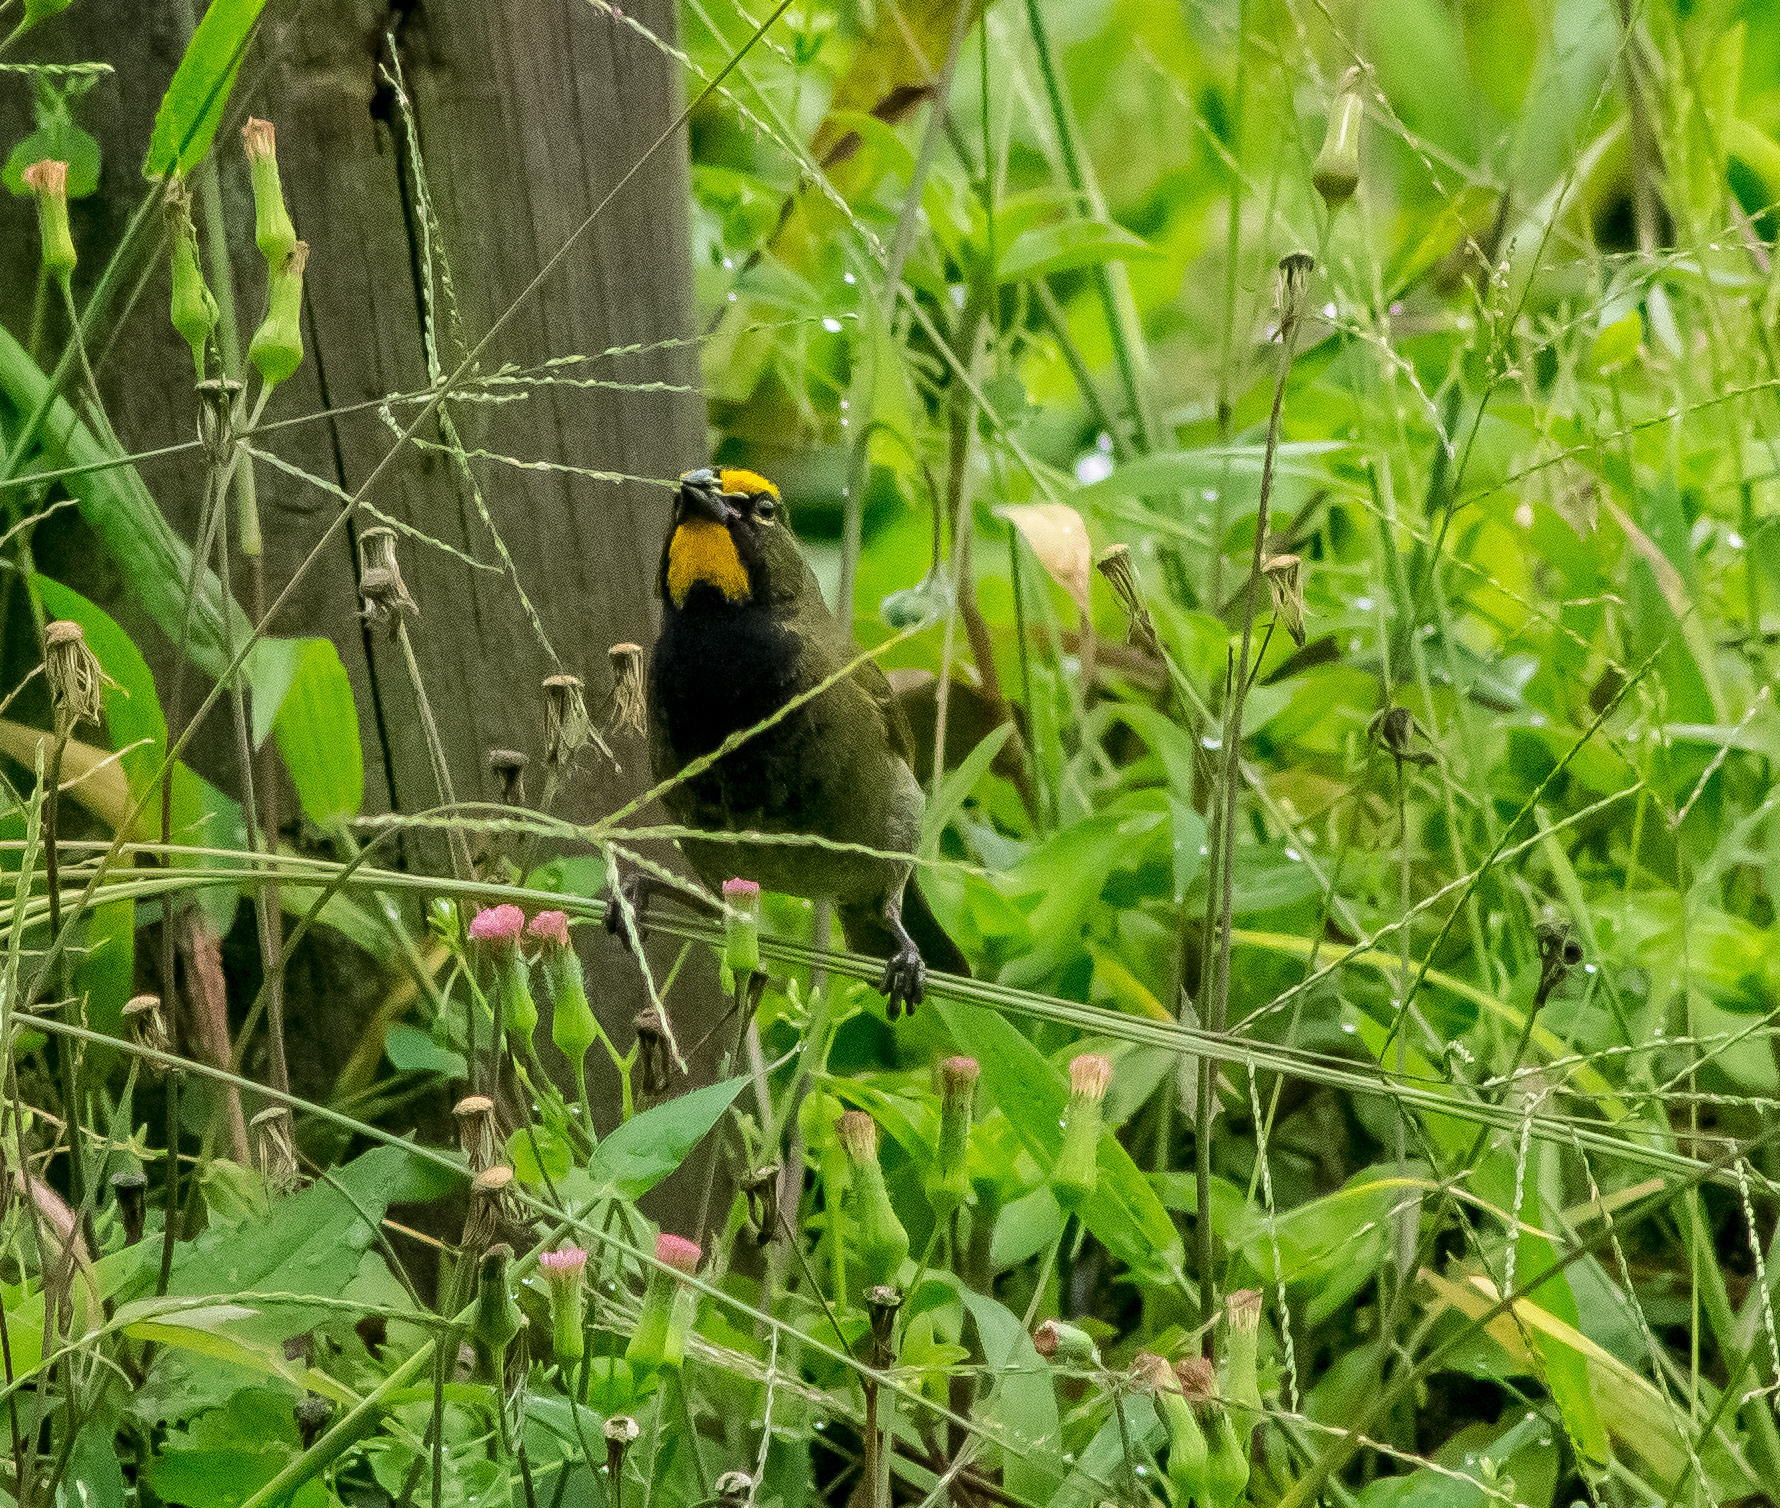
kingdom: Animalia
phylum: Chordata
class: Aves
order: Passeriformes
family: Thraupidae
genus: Tiaris
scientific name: Tiaris olivaceus
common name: Yellow-faced grassquit
